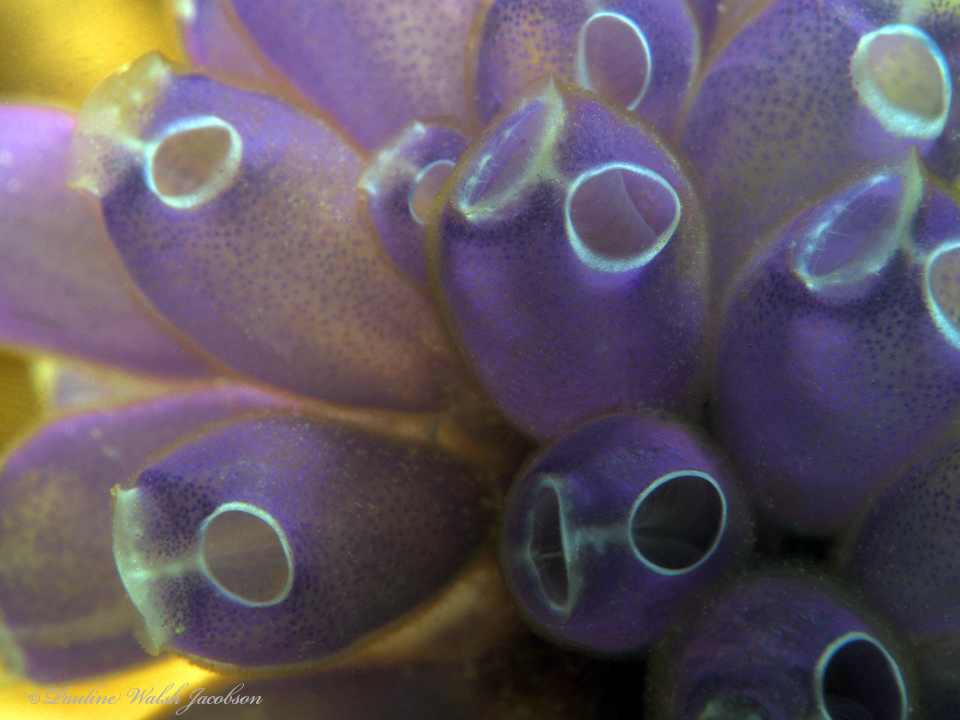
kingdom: Animalia
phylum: Chordata
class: Ascidiacea
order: Aplousobranchia
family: Clavelinidae
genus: Clavelina
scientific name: Clavelina puertosecensis
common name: Blue bell tunicate
